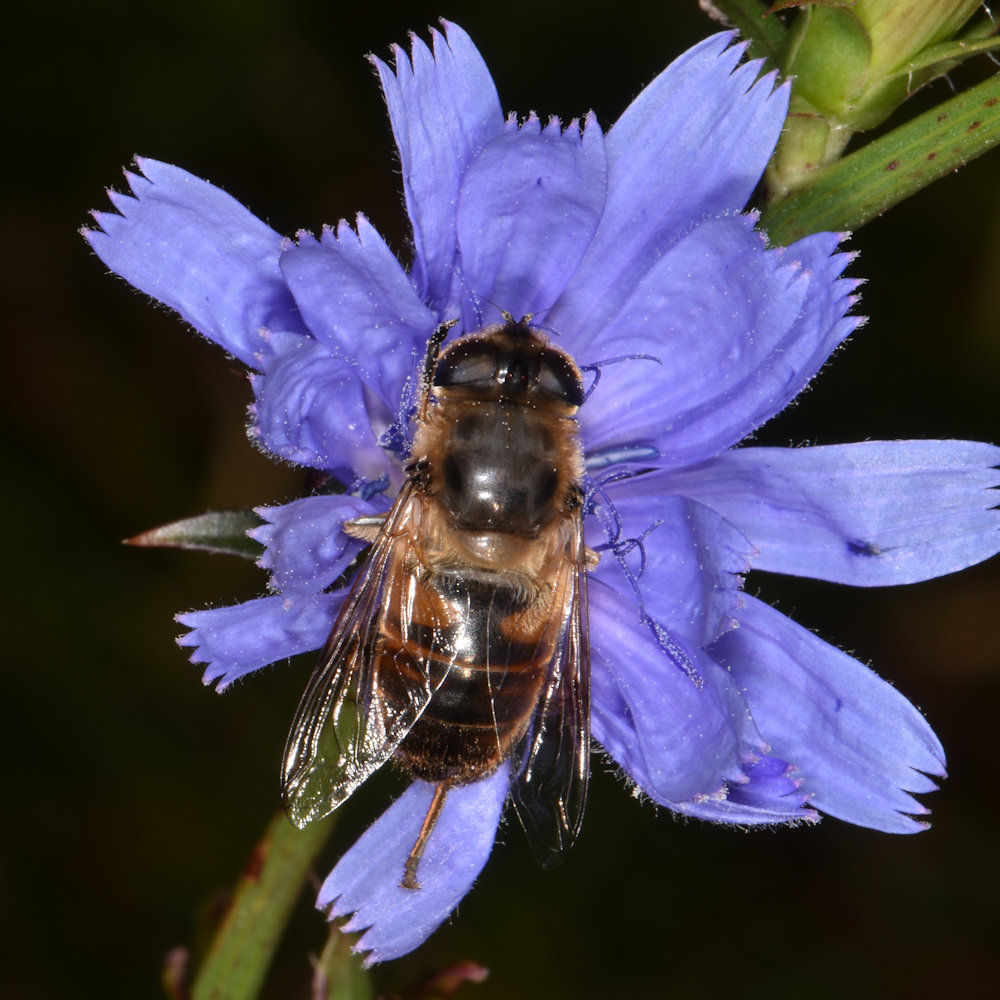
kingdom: Animalia
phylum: Arthropoda
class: Insecta
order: Diptera
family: Syrphidae
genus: Eristalis
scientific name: Eristalis tenax
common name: Drone fly
